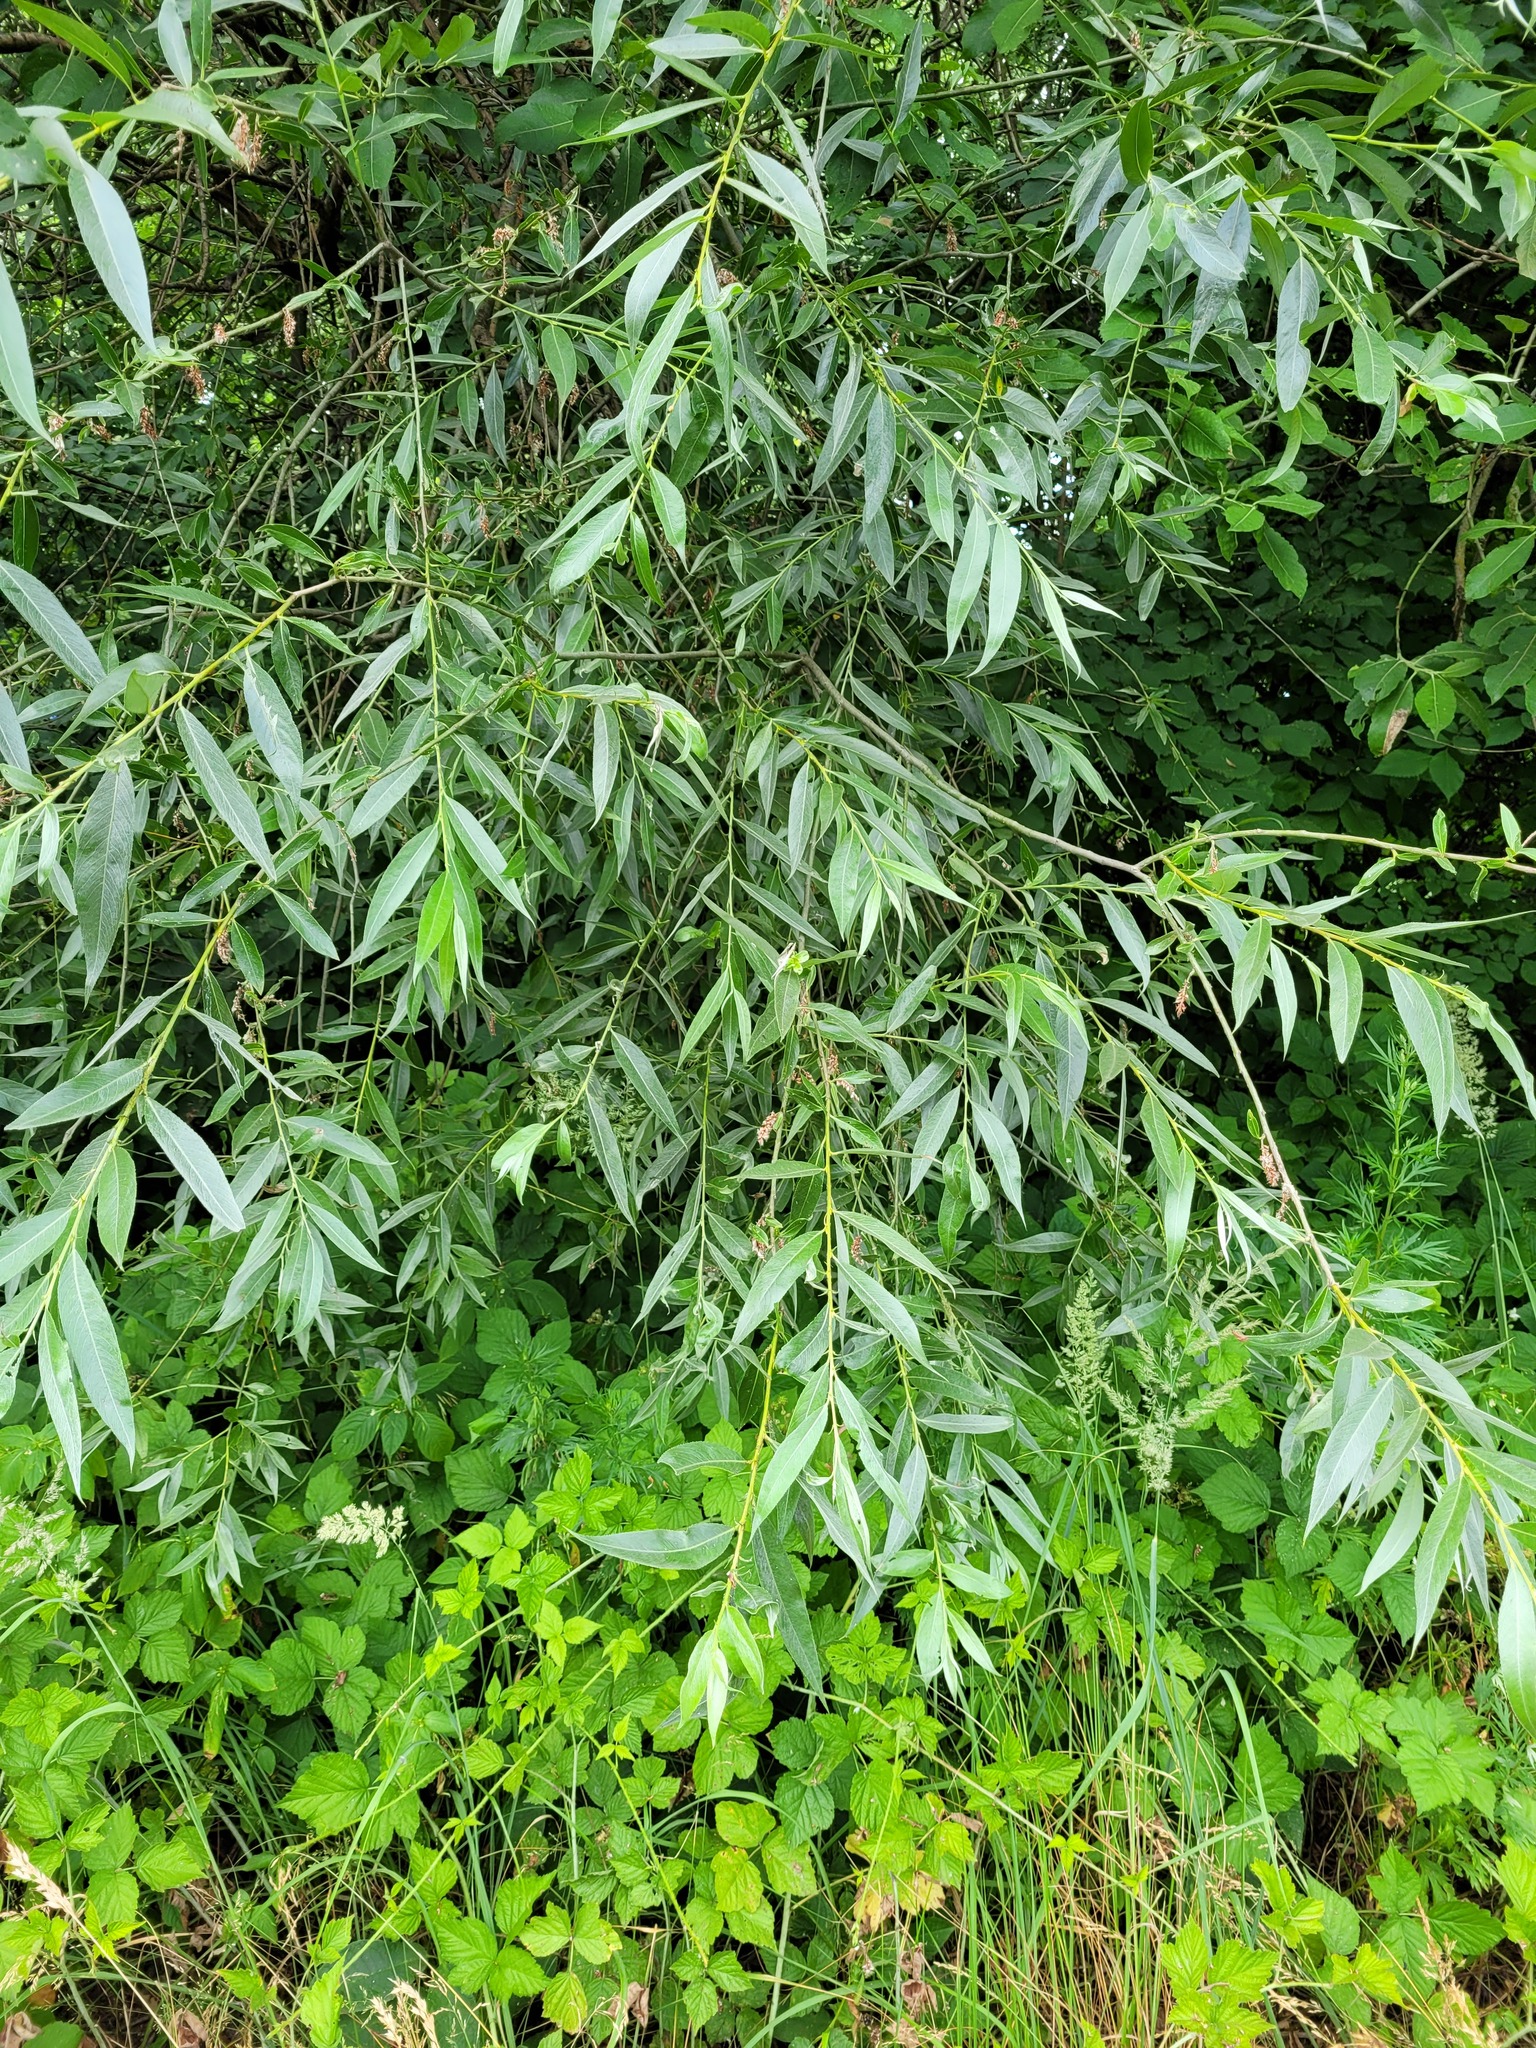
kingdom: Plantae
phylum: Tracheophyta
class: Magnoliopsida
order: Malpighiales
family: Salicaceae
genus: Salix
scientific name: Salix alba
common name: White willow
